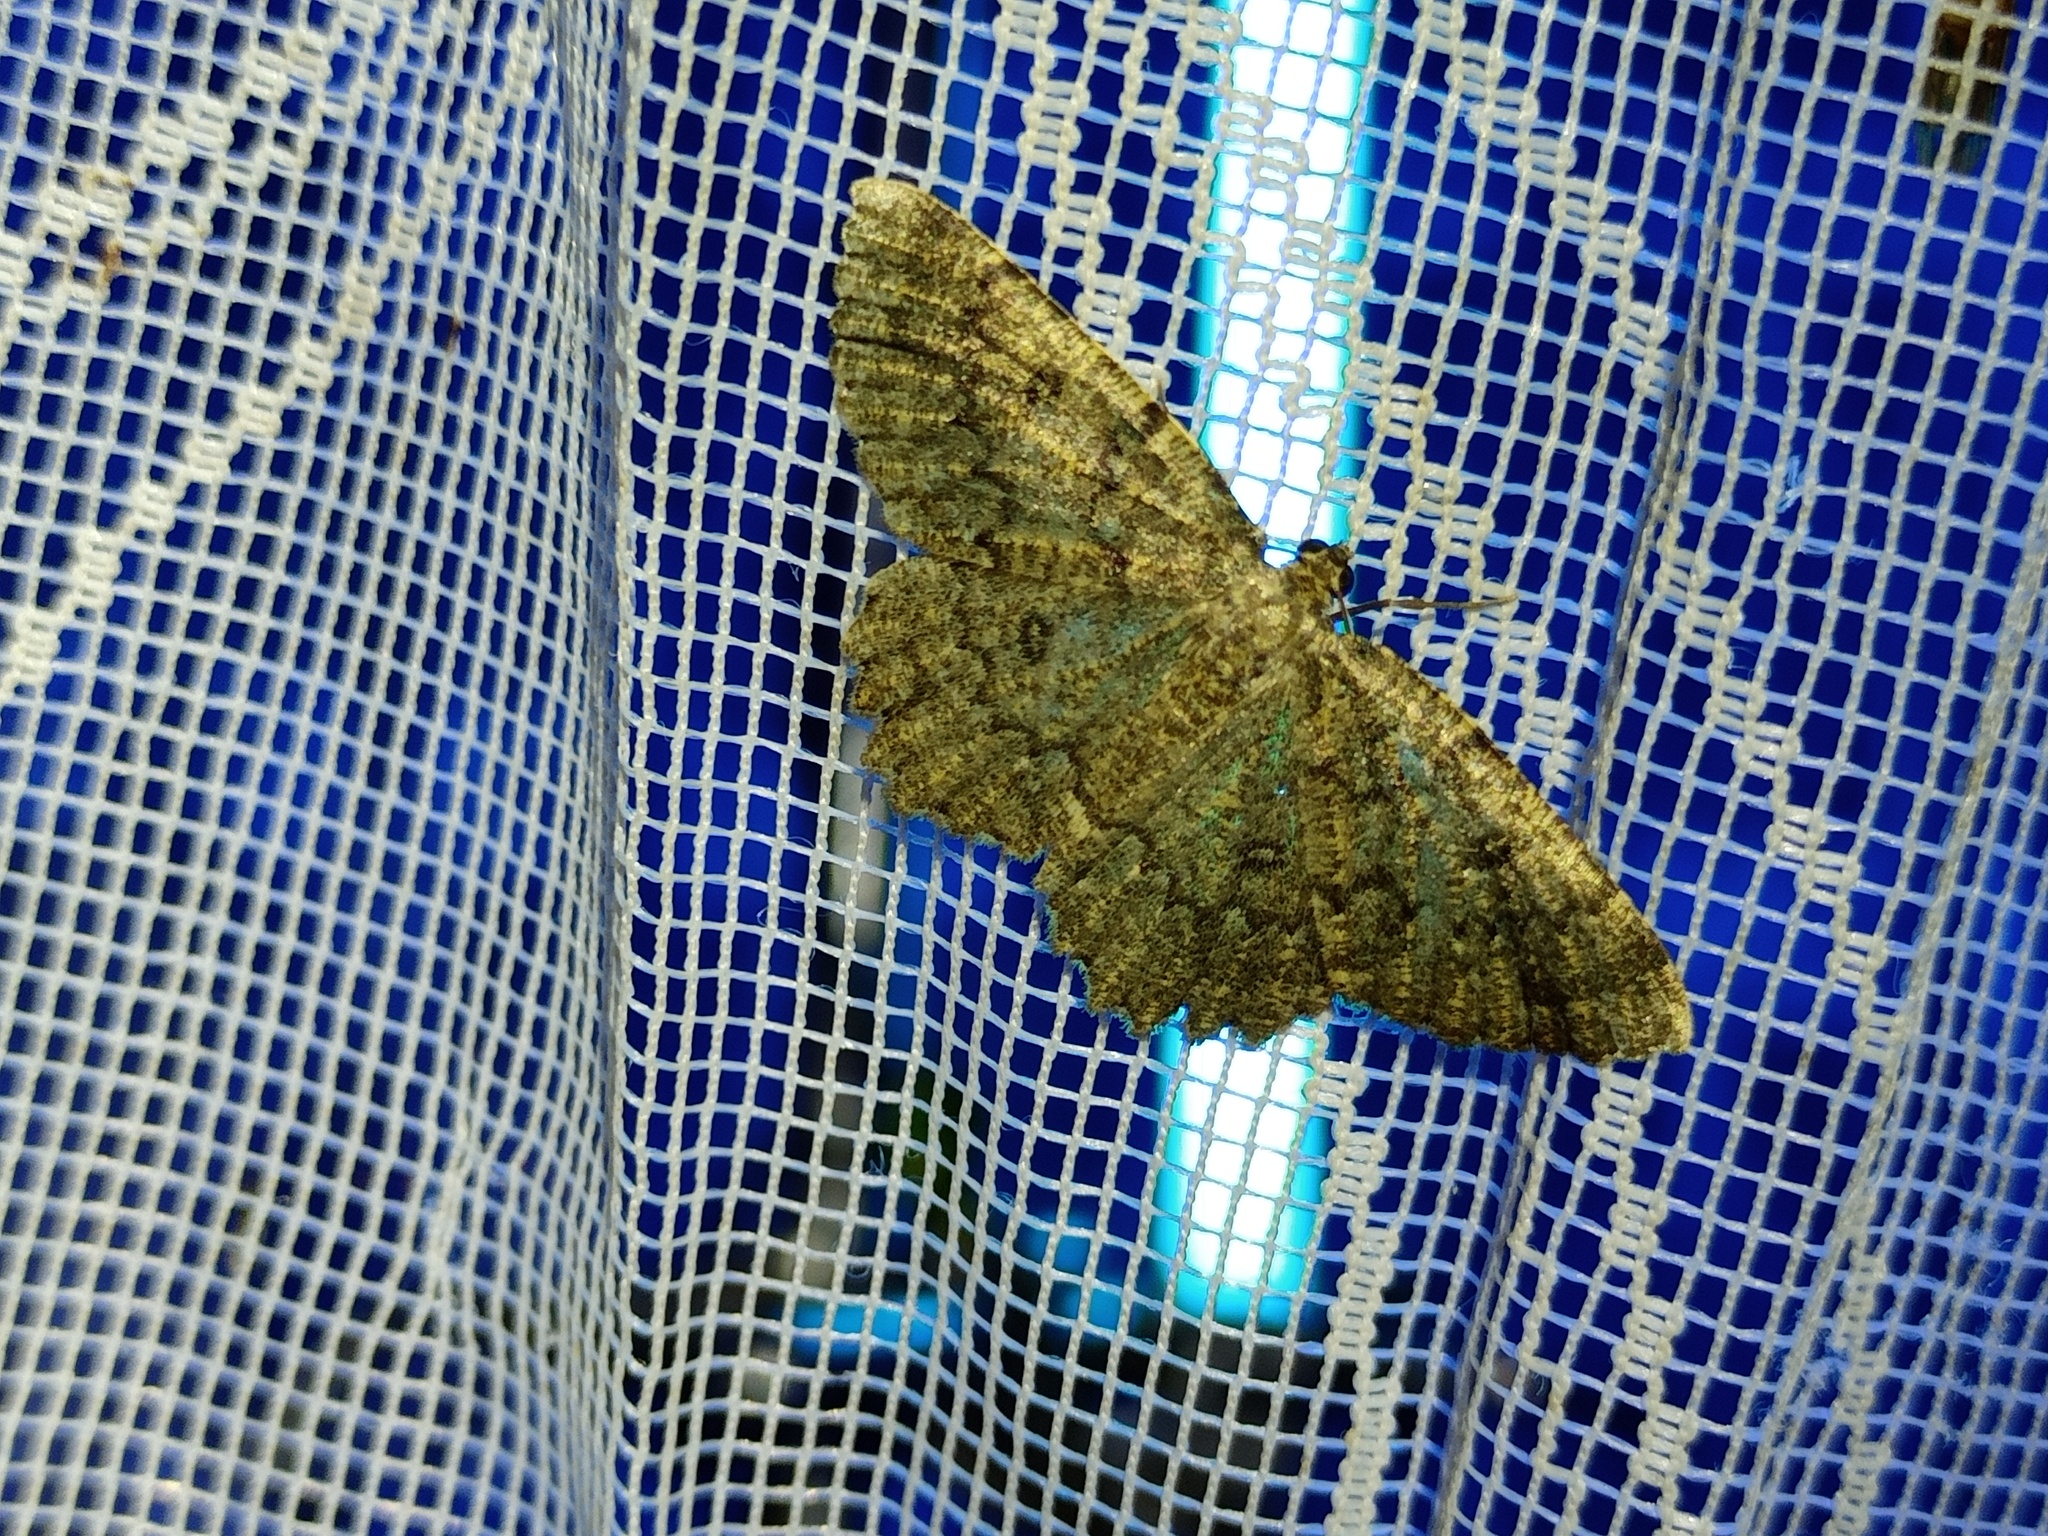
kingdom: Animalia
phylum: Arthropoda
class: Insecta
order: Lepidoptera
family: Geometridae
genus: Charissa
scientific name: Charissa obscurata
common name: Annulet
